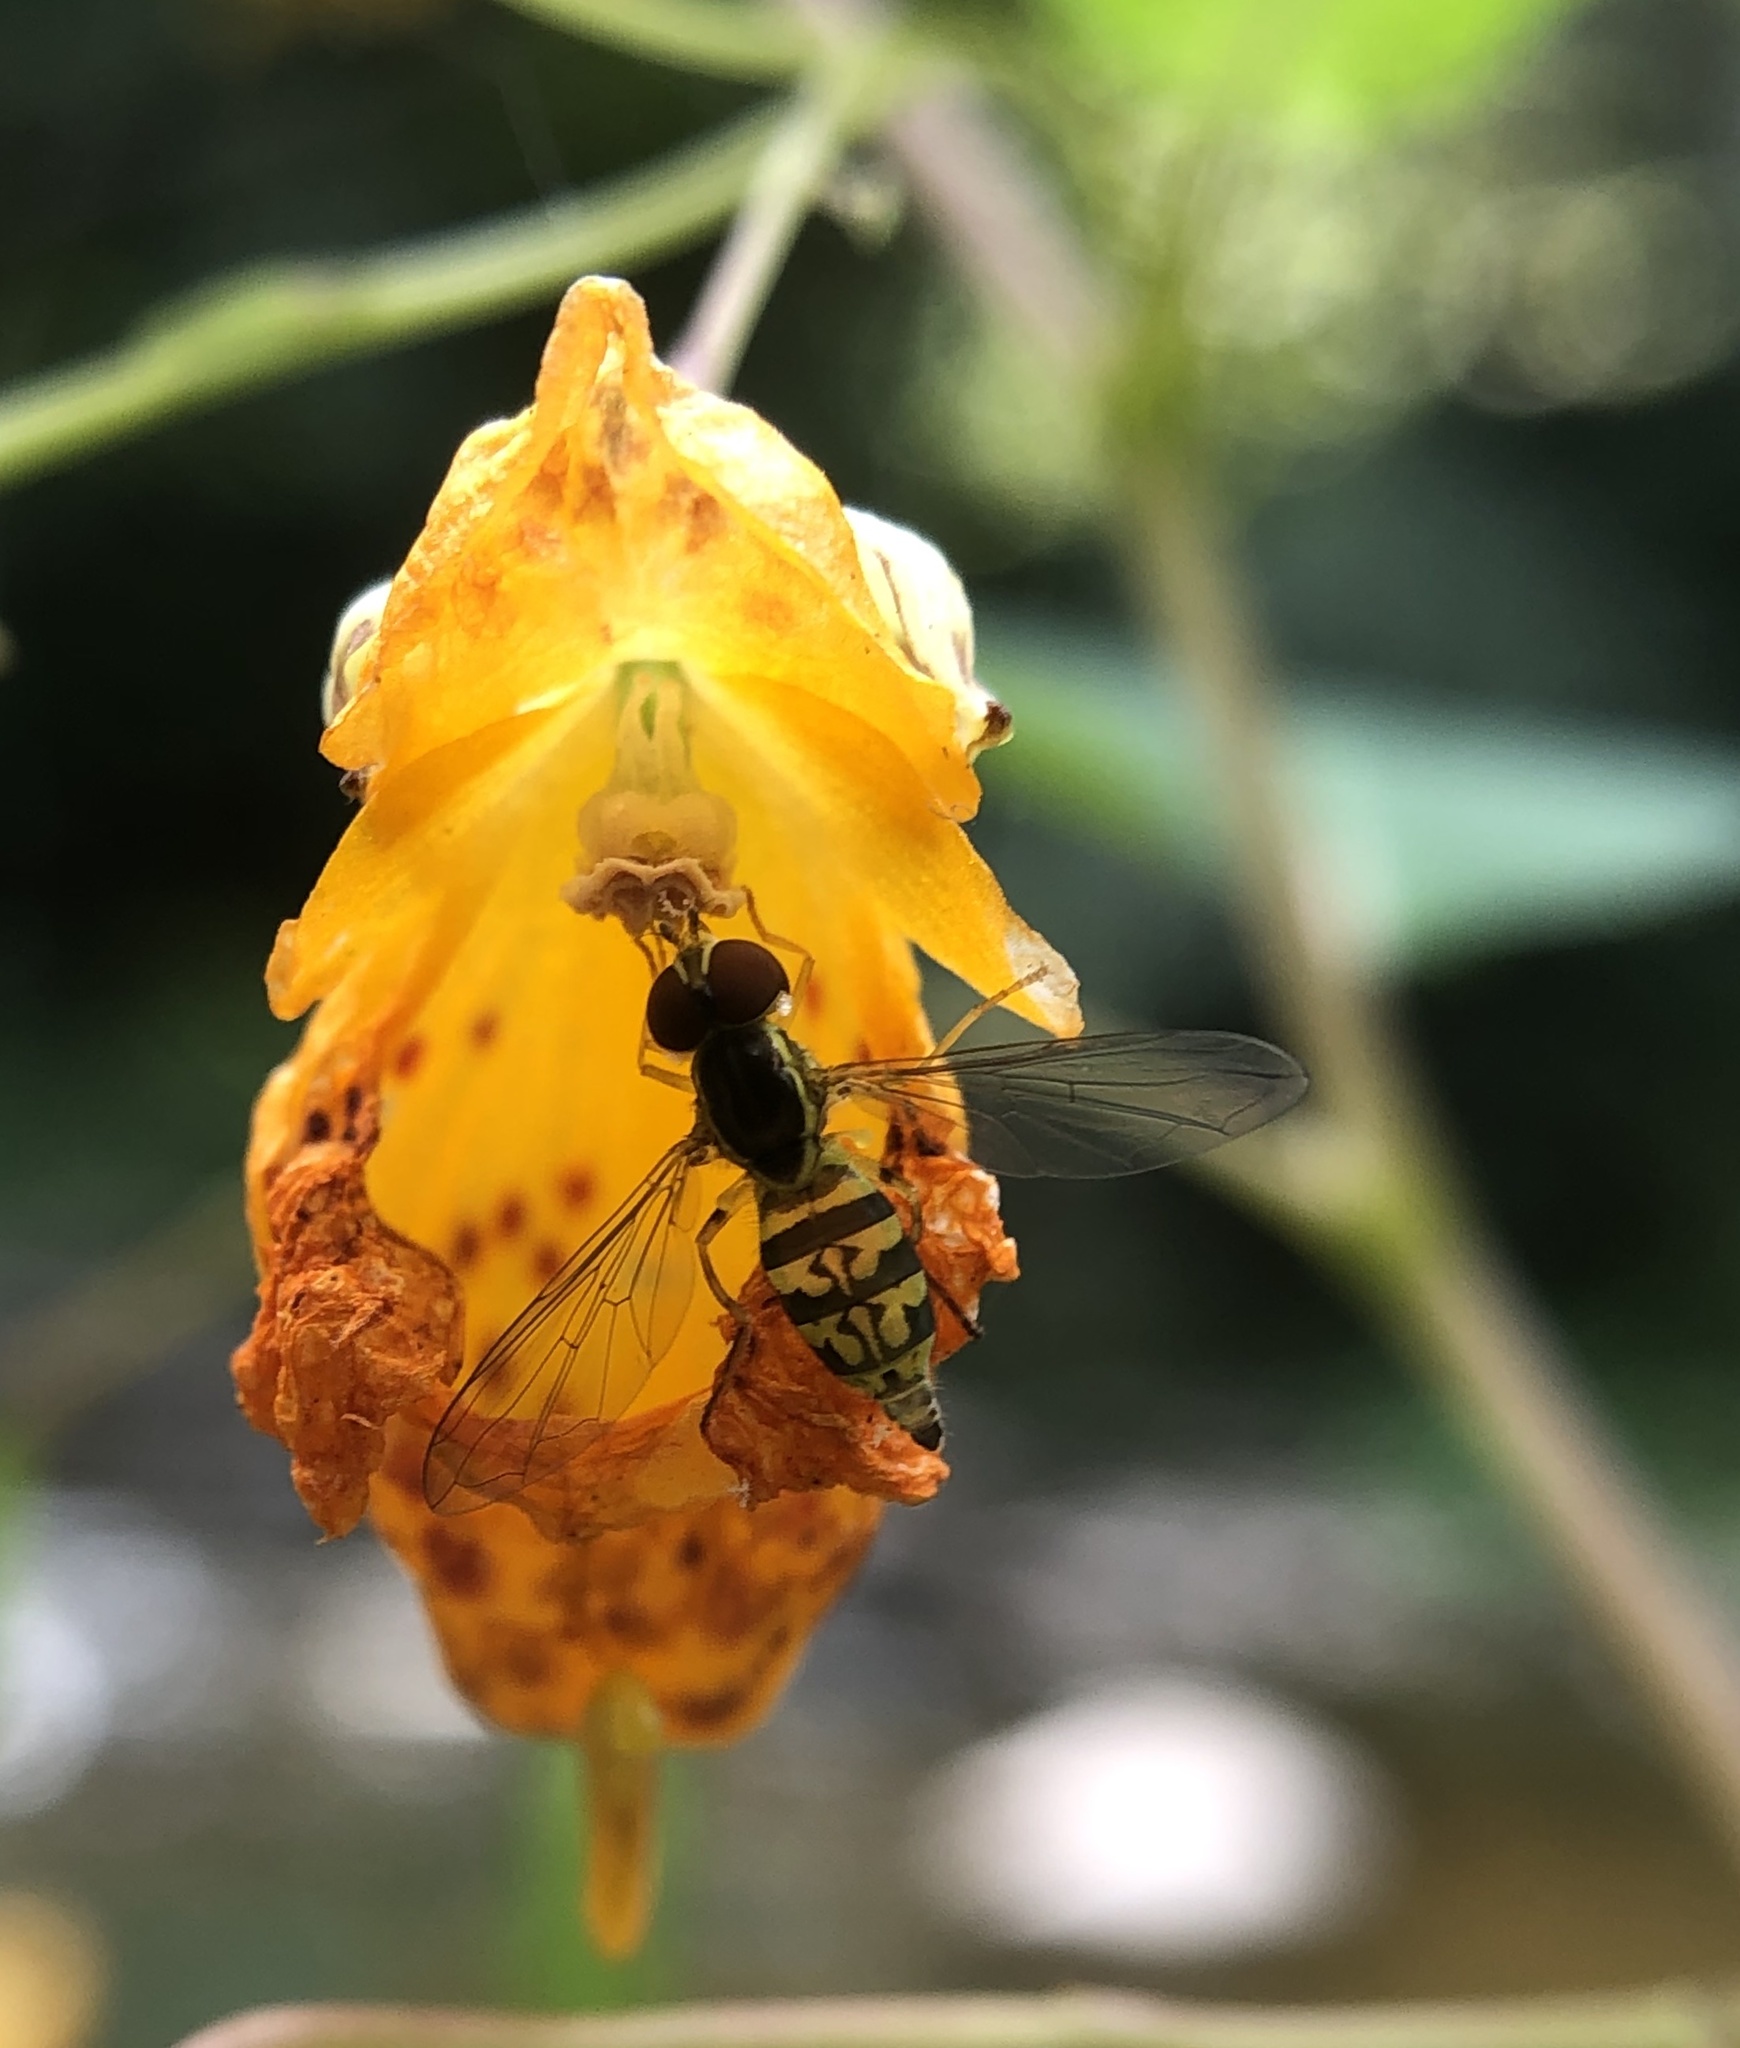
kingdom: Animalia
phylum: Arthropoda
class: Insecta
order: Diptera
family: Syrphidae
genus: Toxomerus
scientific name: Toxomerus geminatus
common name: Eastern calligrapher
